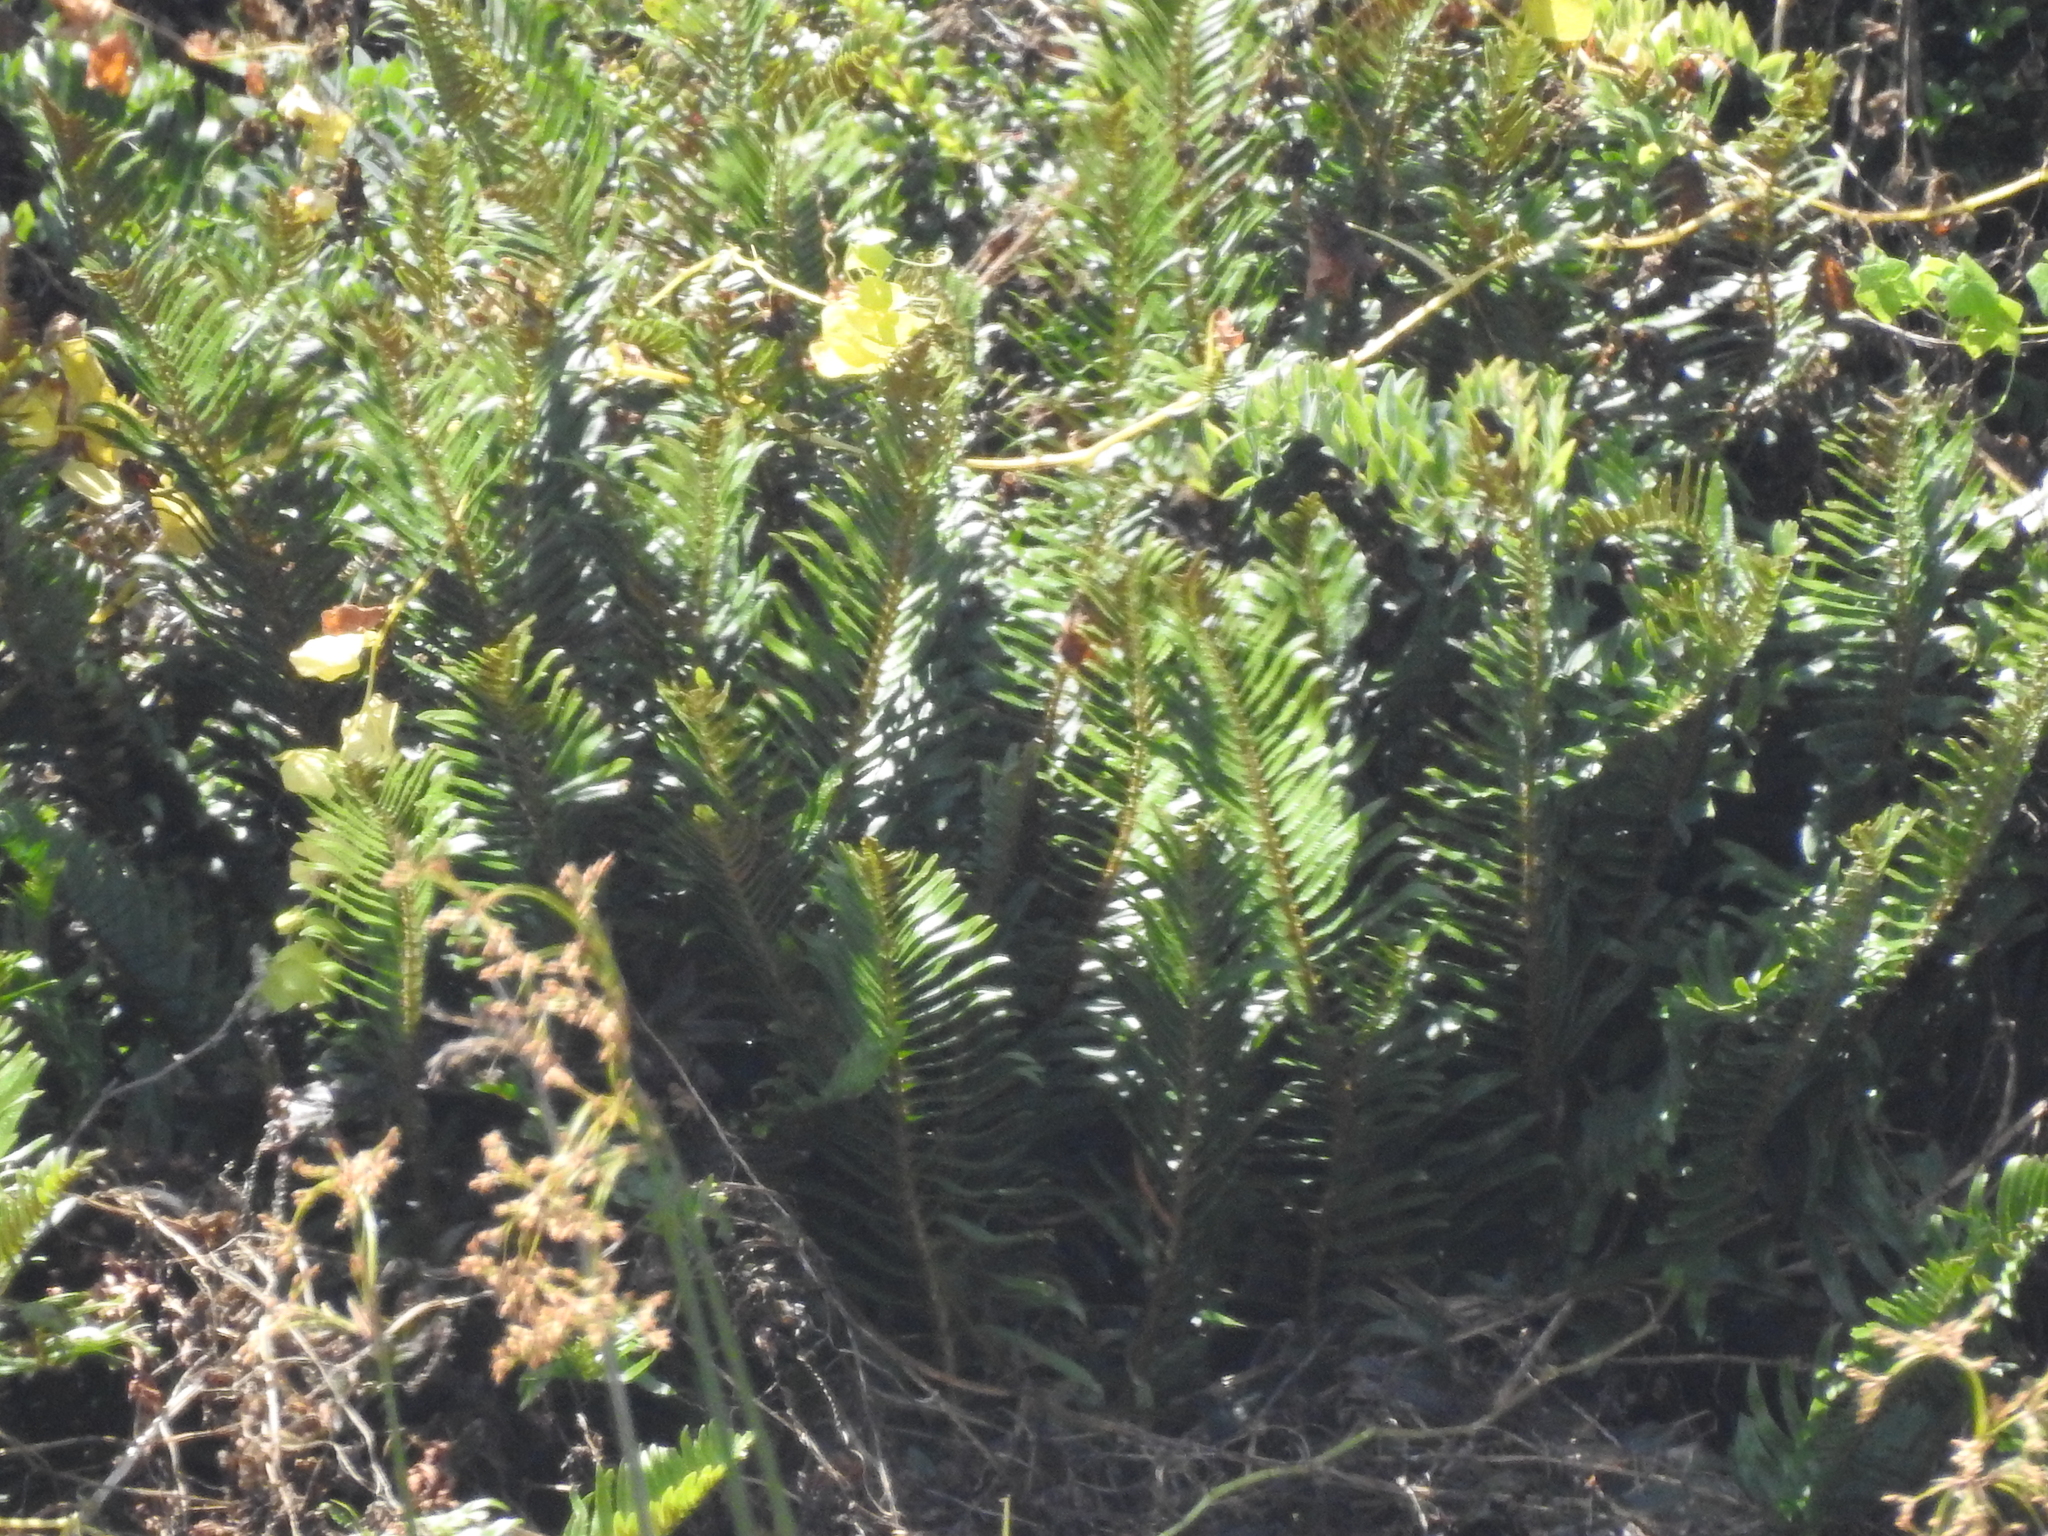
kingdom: Plantae
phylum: Tracheophyta
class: Polypodiopsida
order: Polypodiales
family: Dryopteridaceae
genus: Polystichum
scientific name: Polystichum munitum
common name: Western sword-fern
